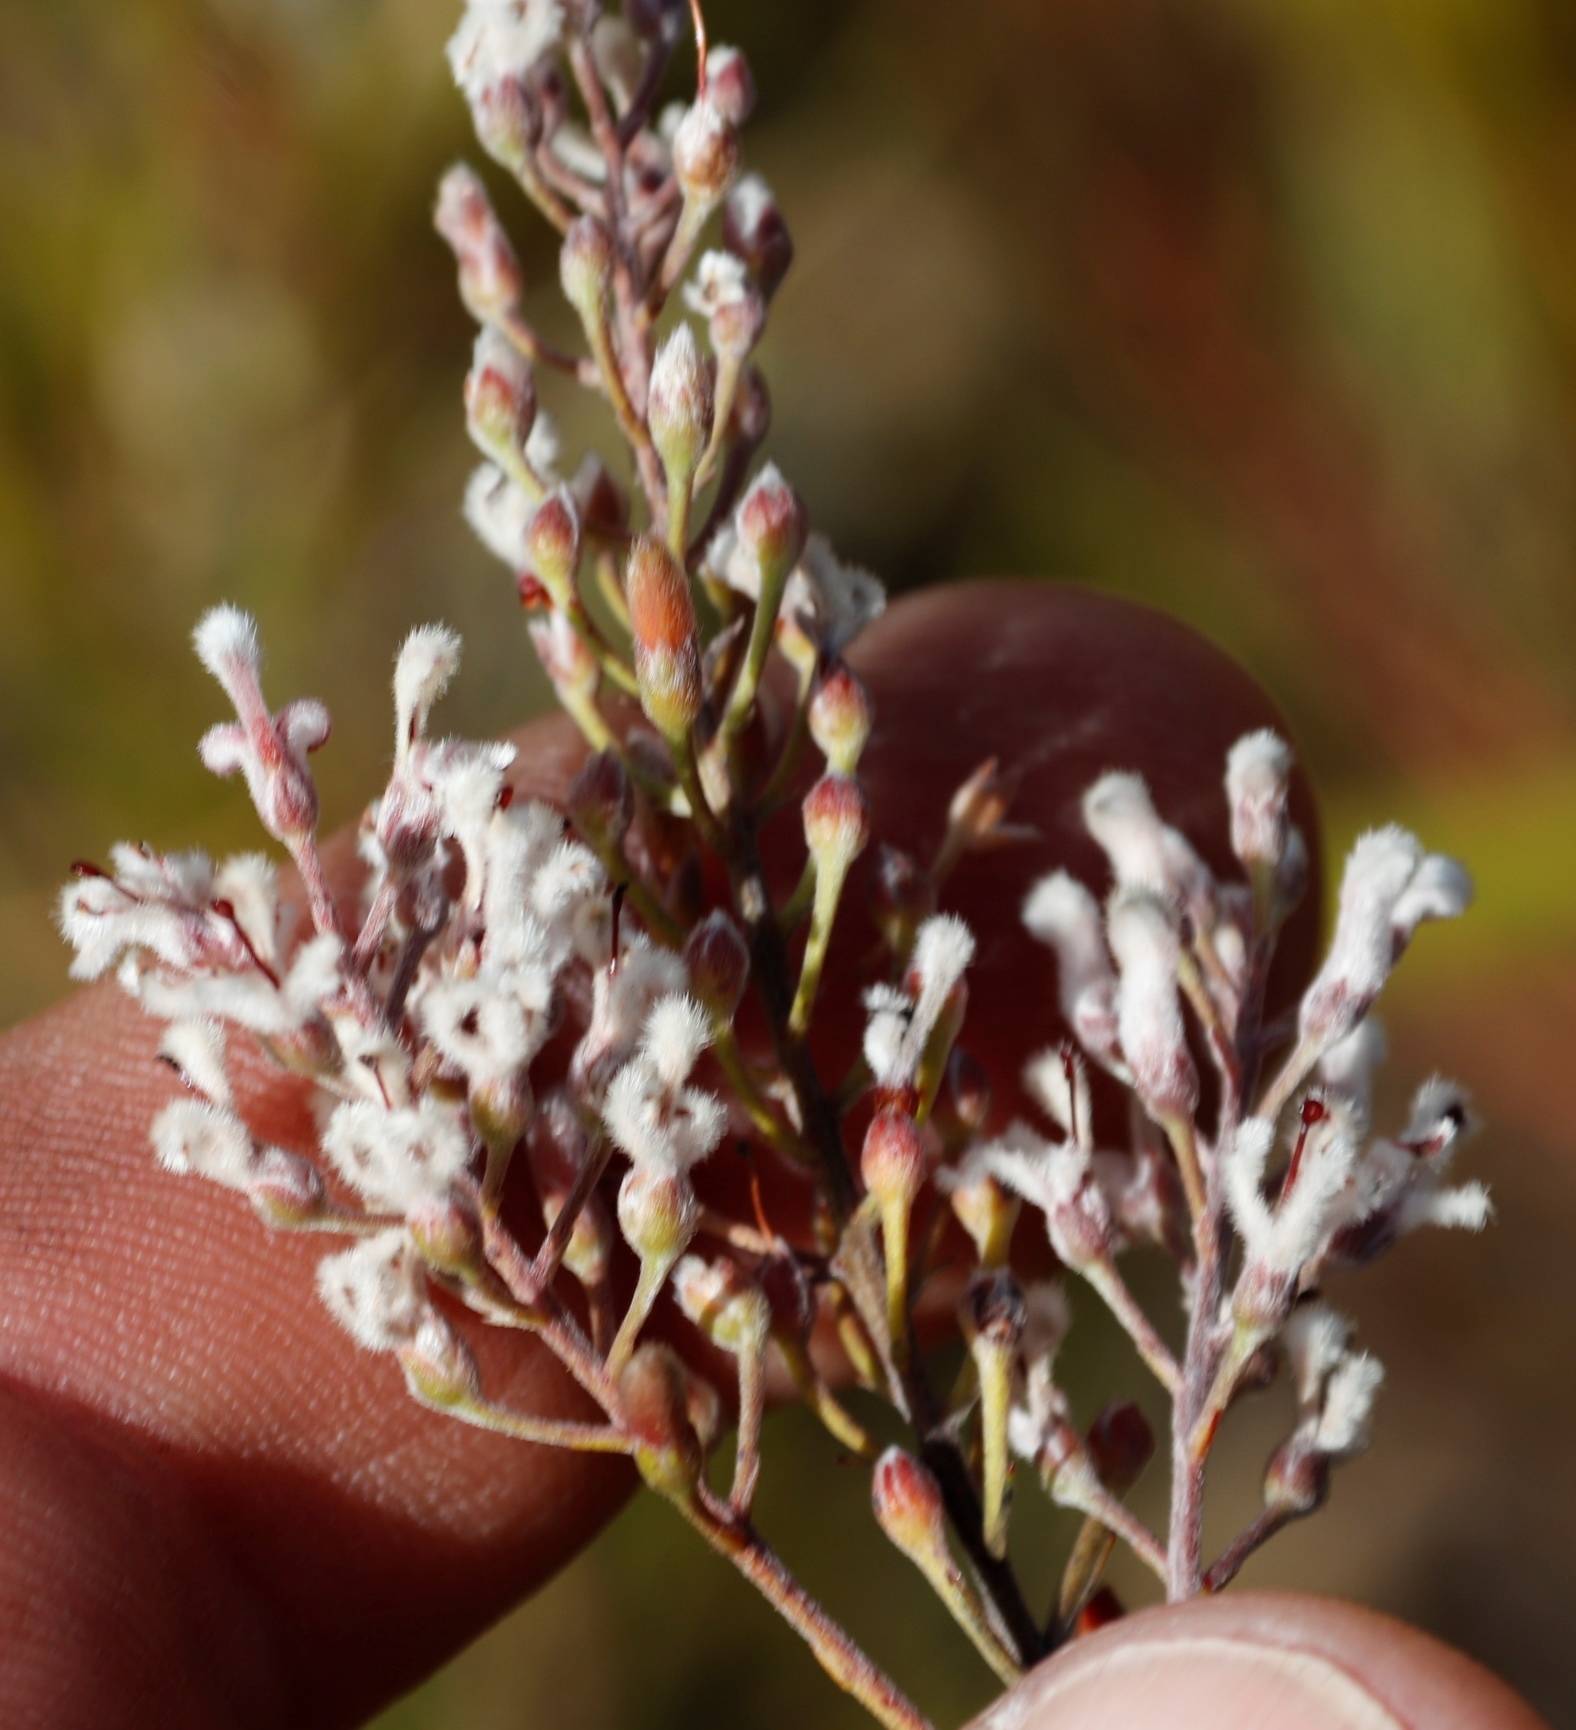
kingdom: Plantae
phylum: Tracheophyta
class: Magnoliopsida
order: Proteales
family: Proteaceae
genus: Spatalla
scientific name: Spatalla racemosa
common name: Lax-stalked spoon
